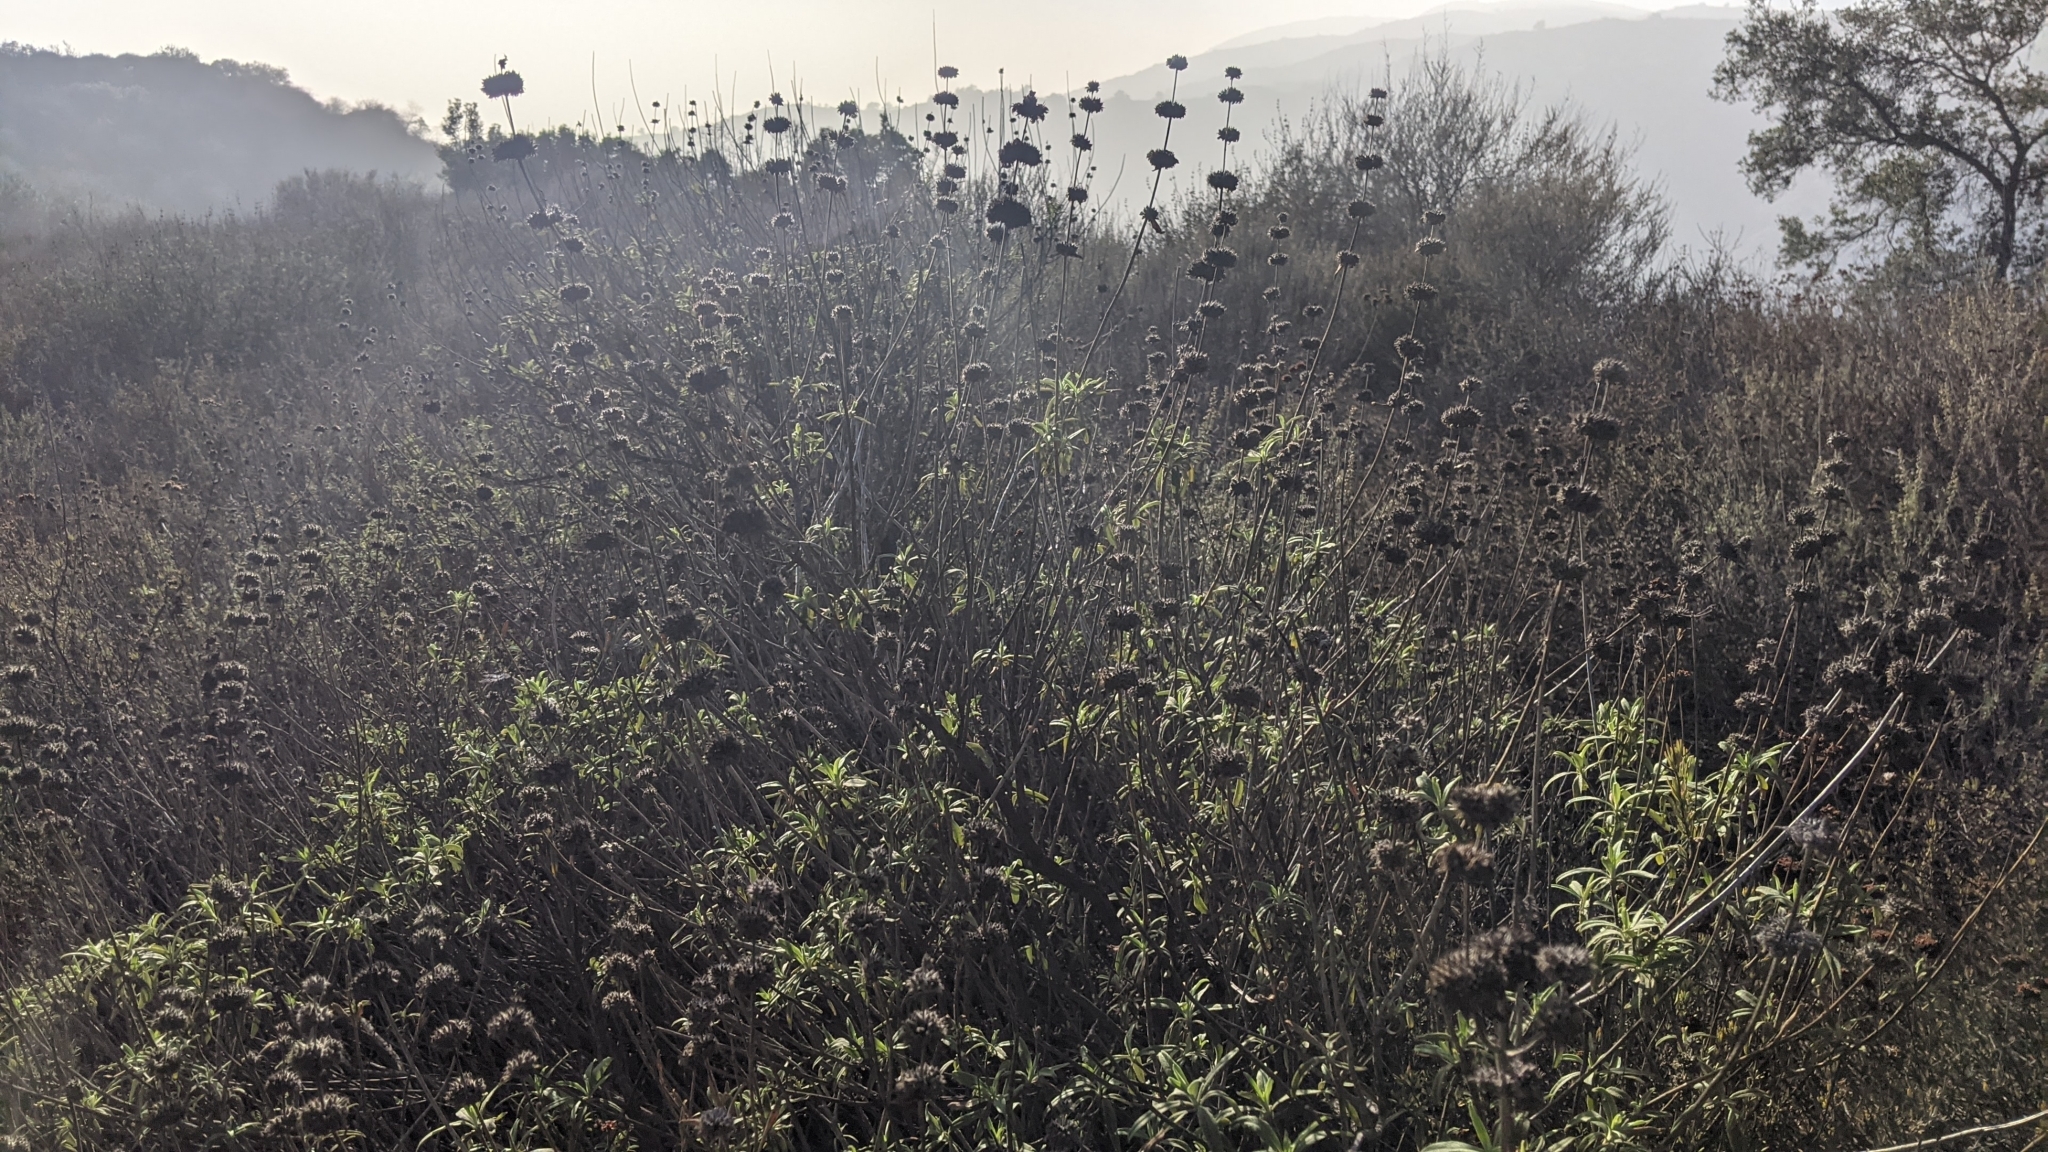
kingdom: Plantae
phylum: Tracheophyta
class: Magnoliopsida
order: Lamiales
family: Lamiaceae
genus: Salvia
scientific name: Salvia mellifera
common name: Black sage
